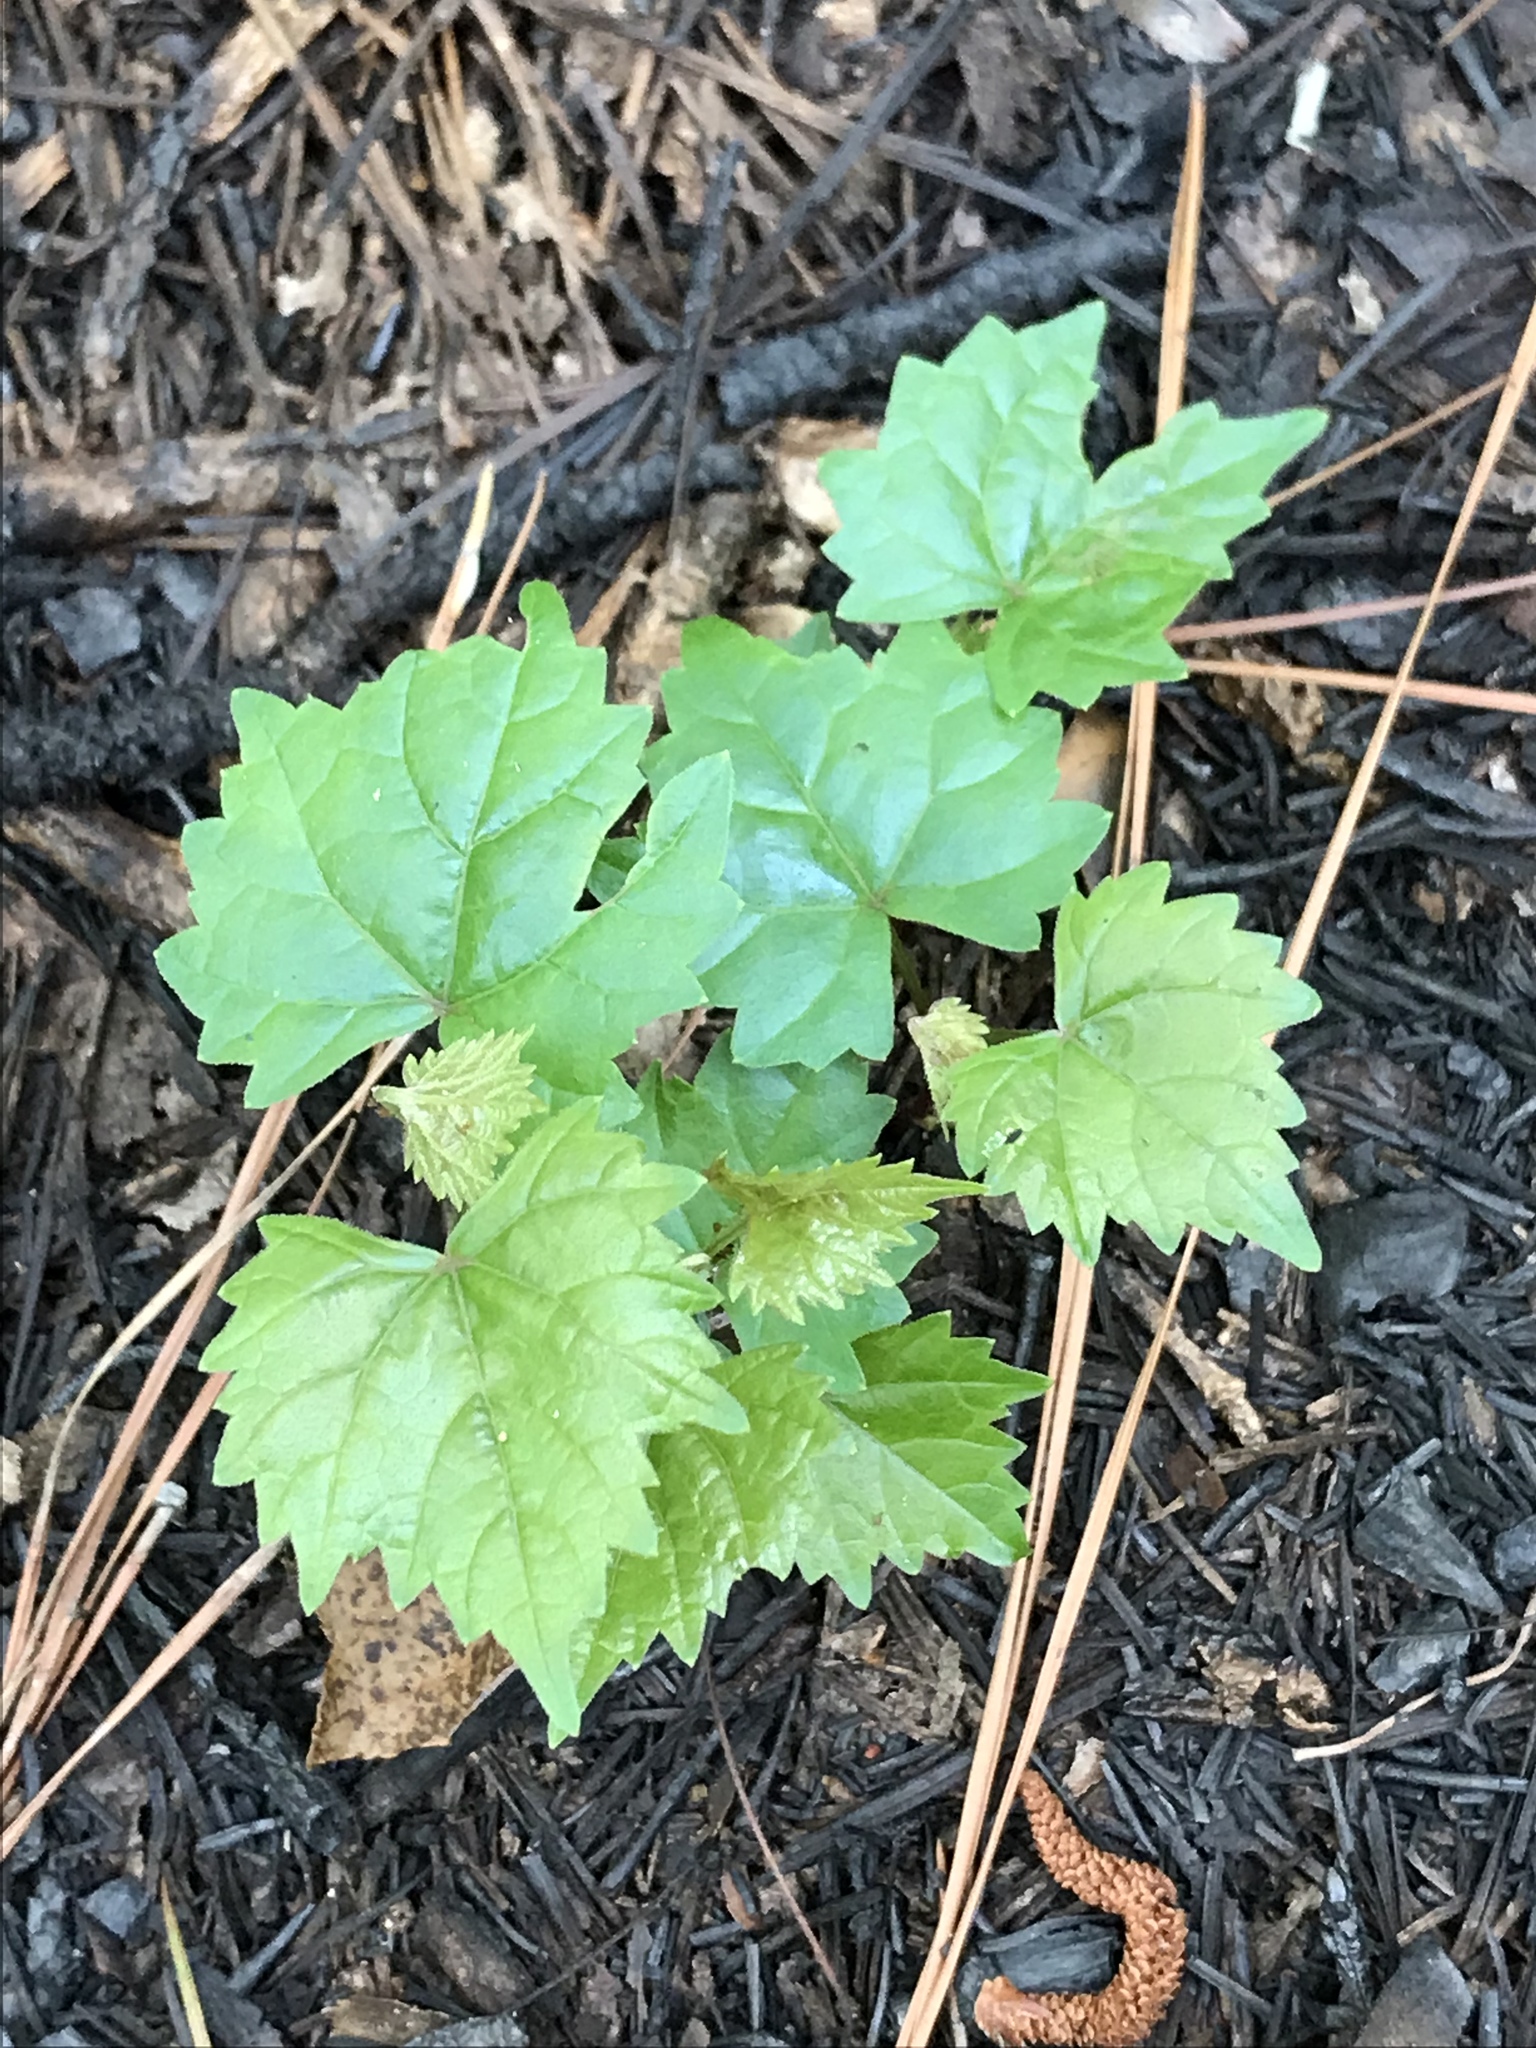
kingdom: Plantae
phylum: Tracheophyta
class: Magnoliopsida
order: Vitales
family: Vitaceae
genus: Vitis
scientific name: Vitis rotundifolia
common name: Muscadine grape
